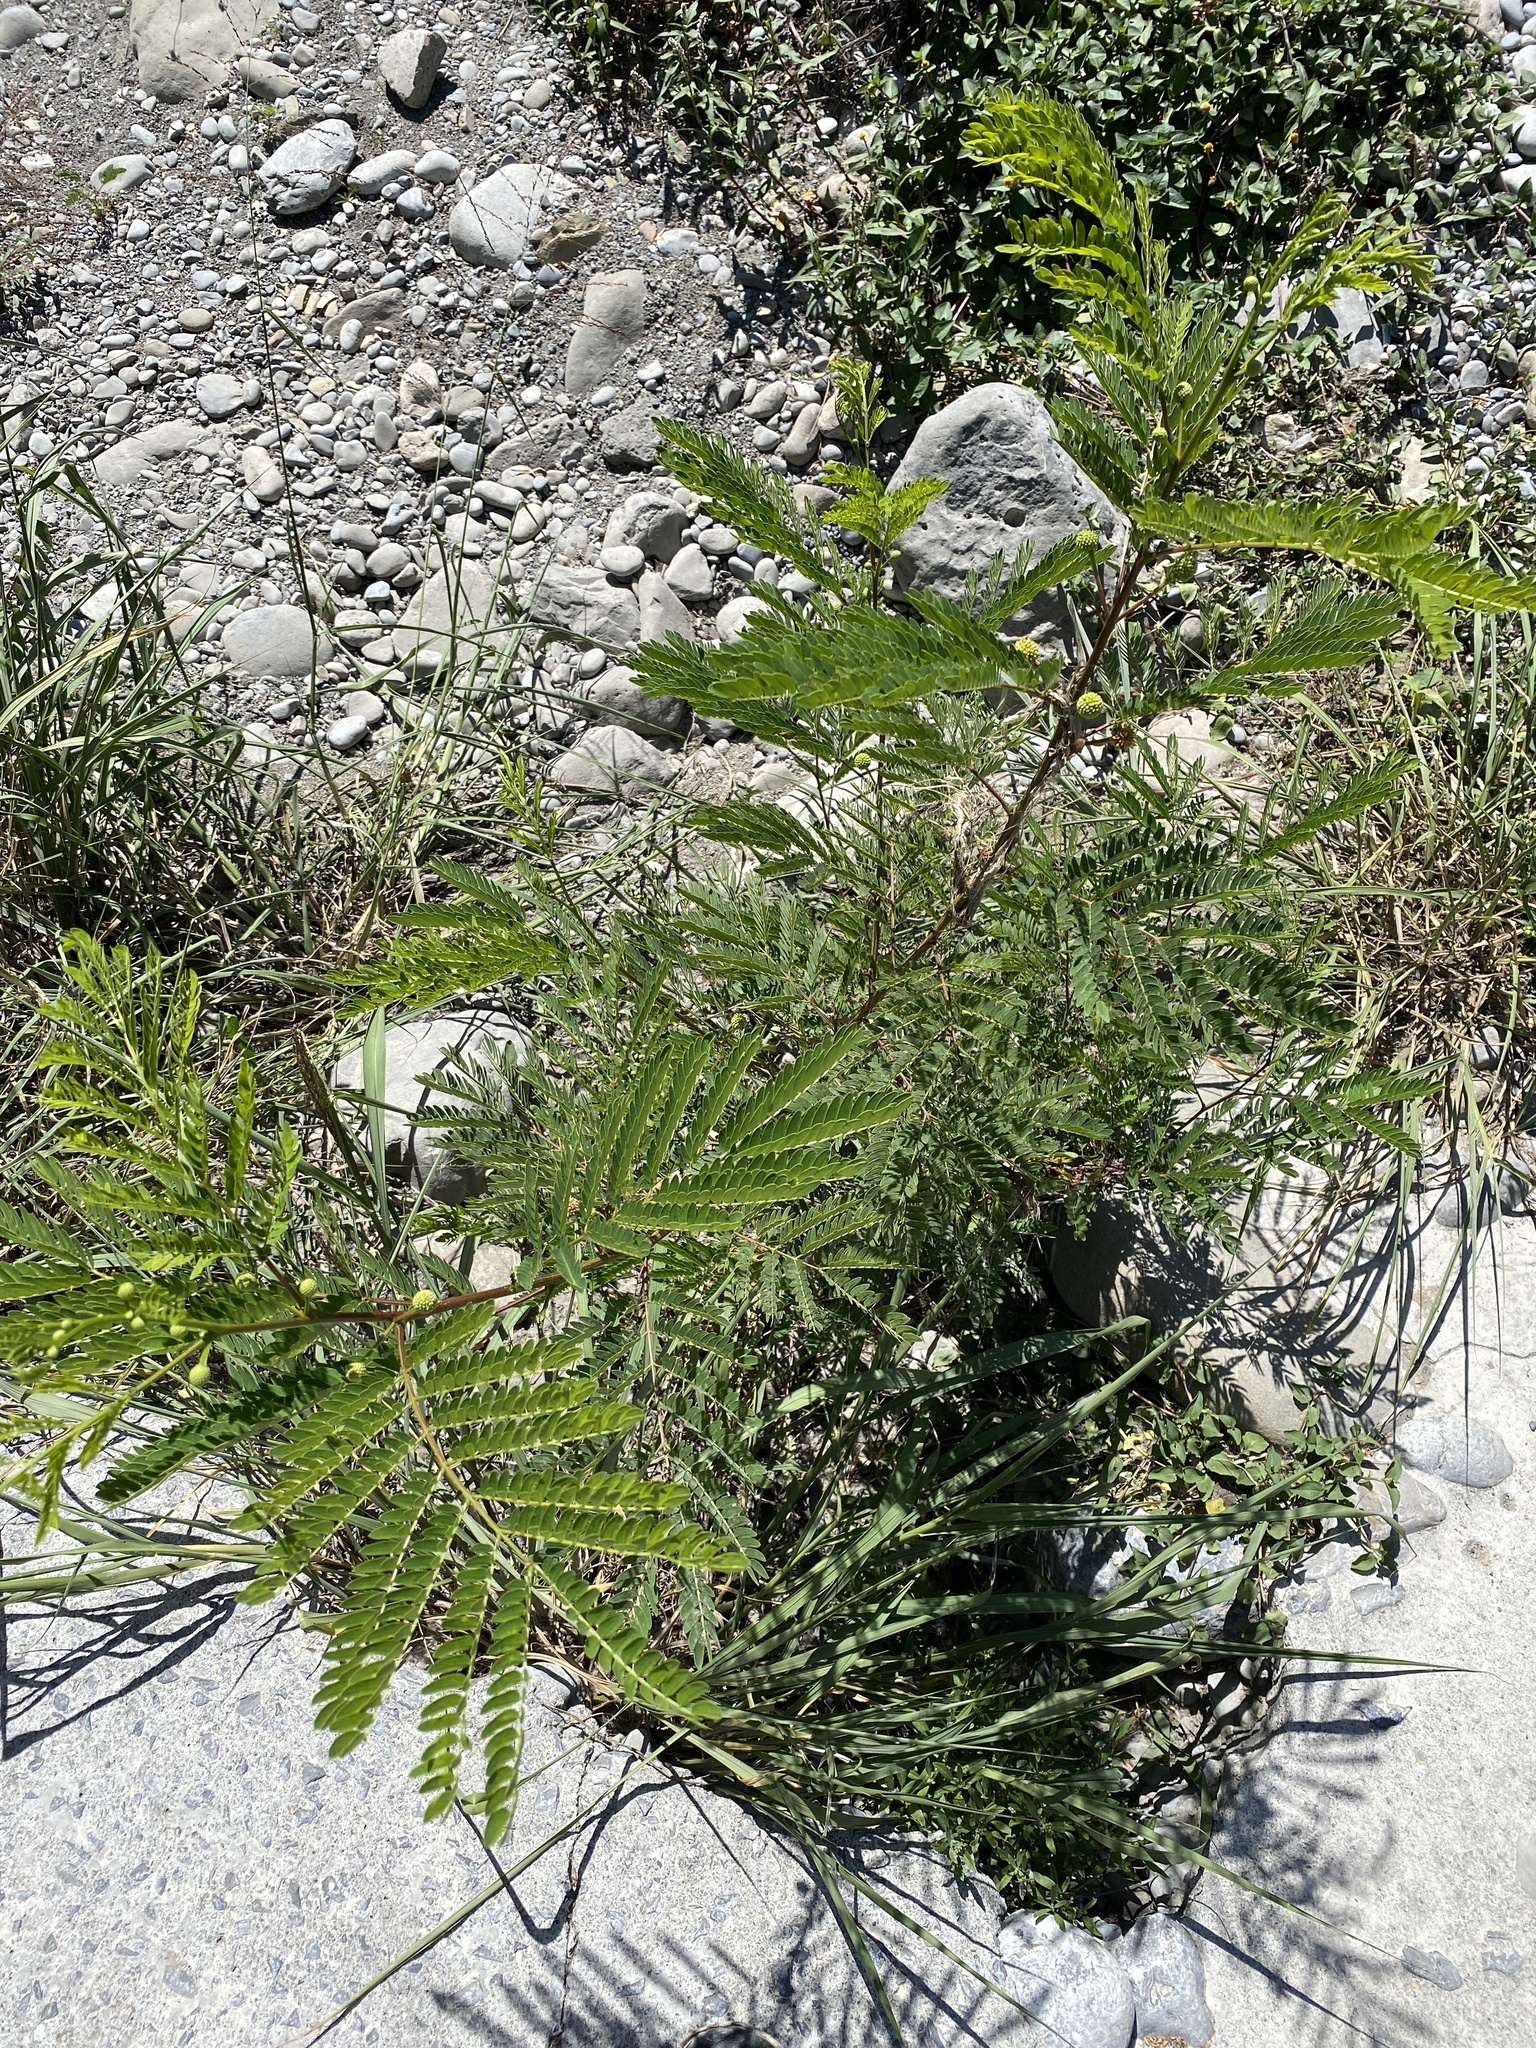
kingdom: Plantae
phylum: Tracheophyta
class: Magnoliopsida
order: Fabales
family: Fabaceae
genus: Leucaena
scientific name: Leucaena leucocephala
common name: White leadtree
